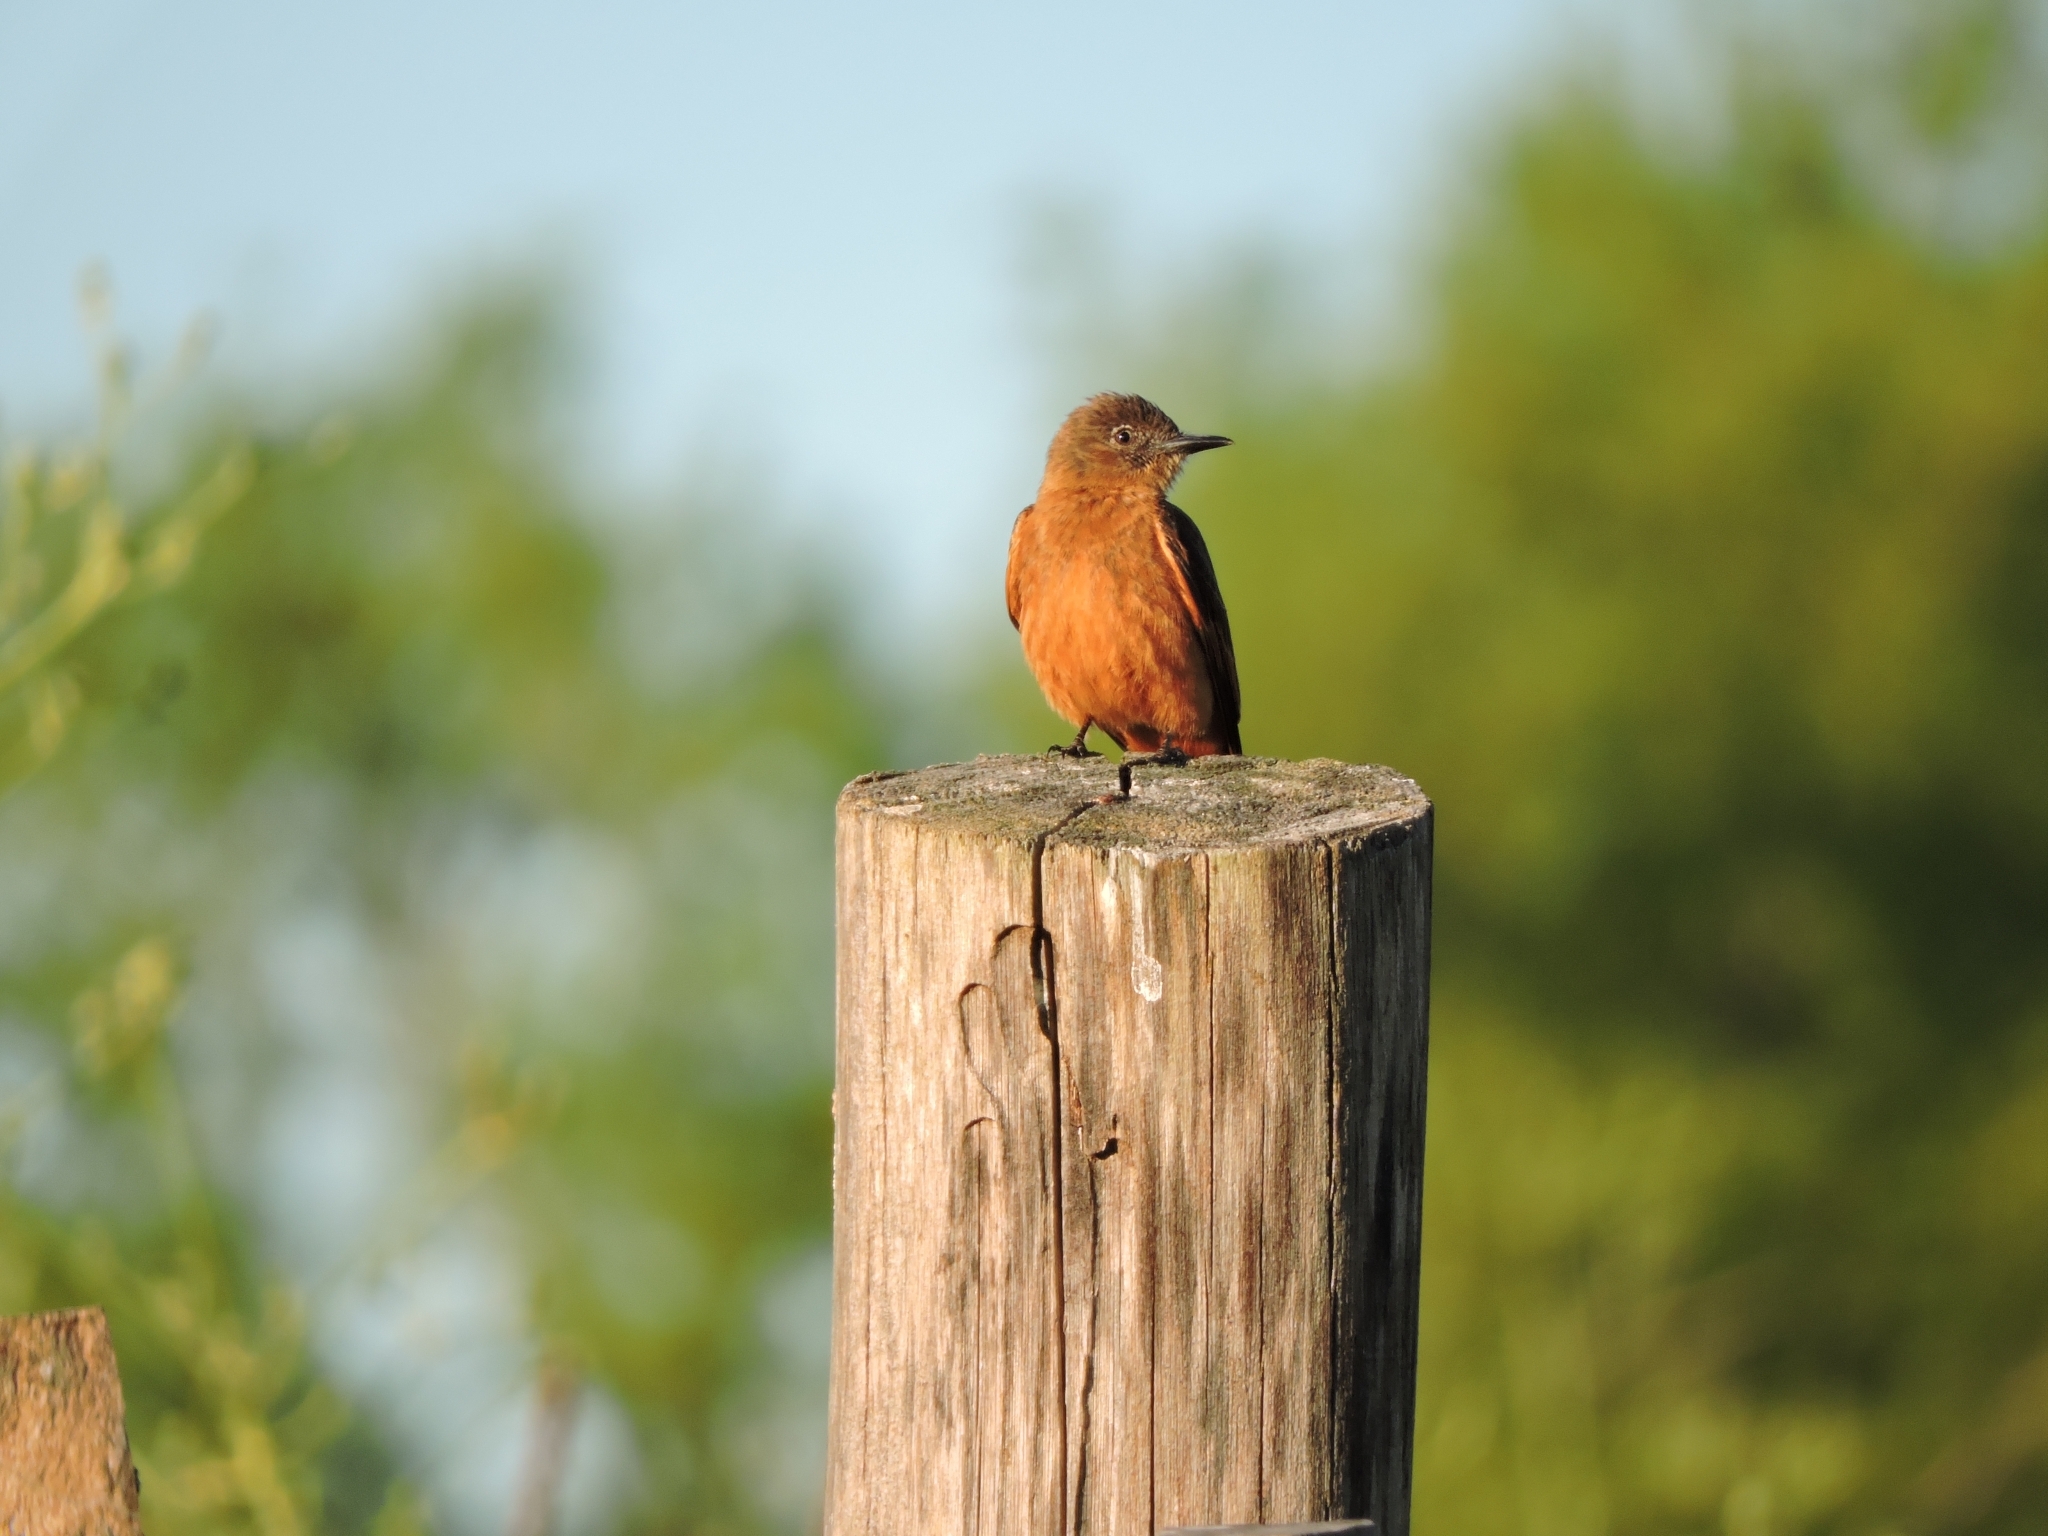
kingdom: Animalia
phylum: Chordata
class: Aves
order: Passeriformes
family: Tyrannidae
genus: Hirundinea
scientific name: Hirundinea ferruginea
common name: Cliff flycatcher
